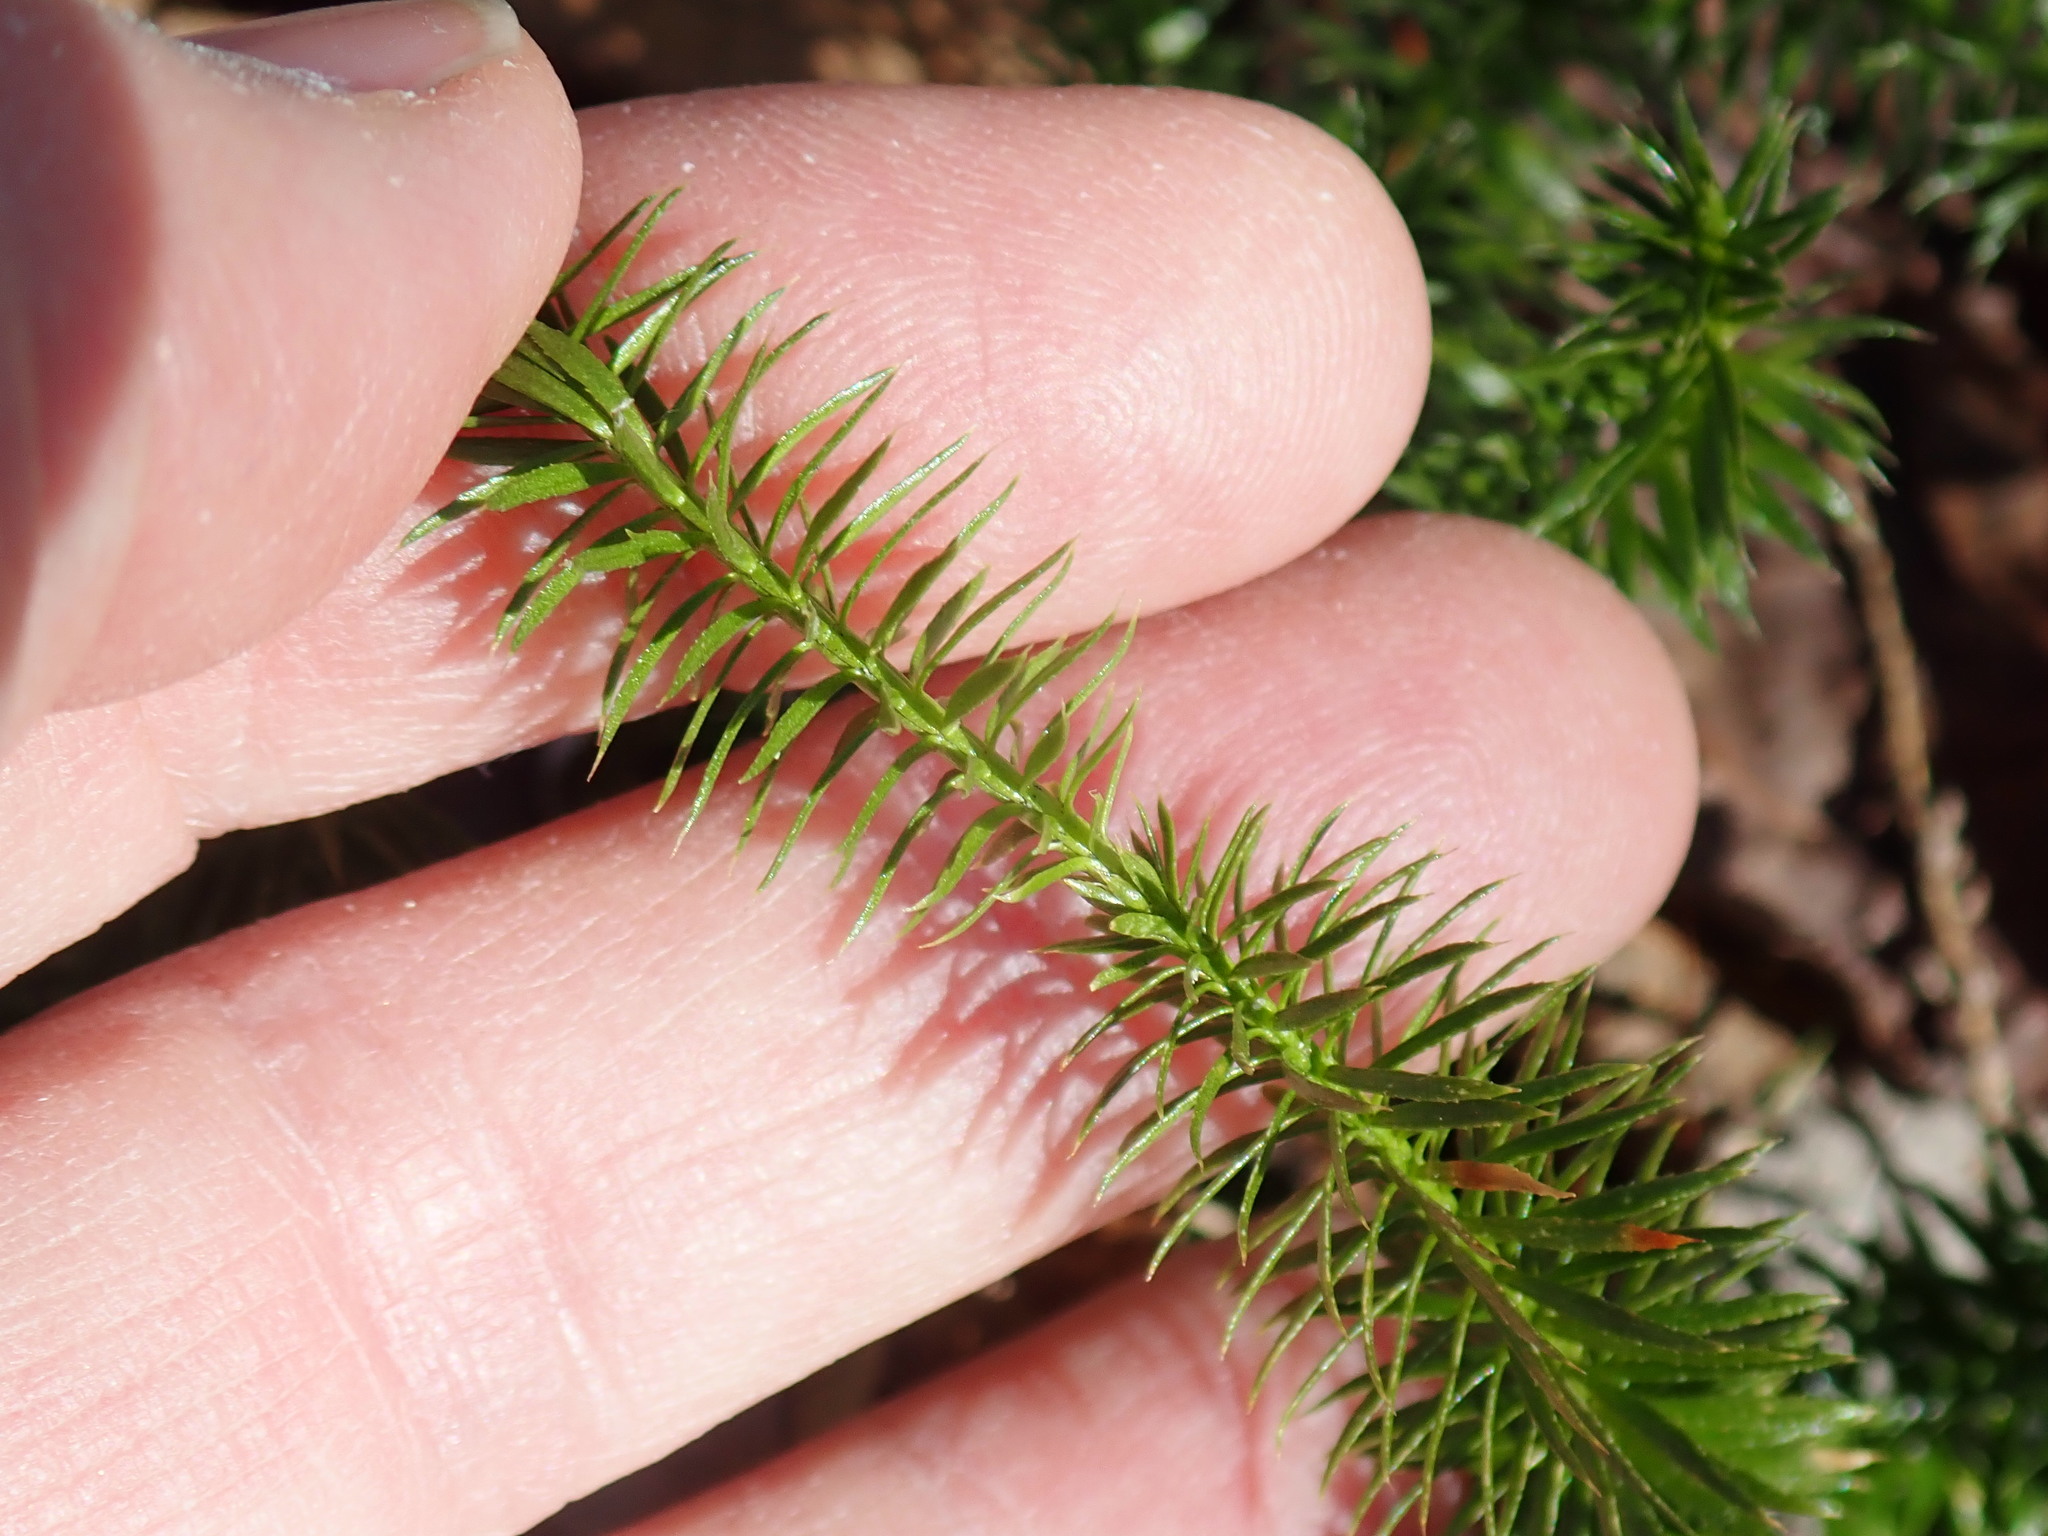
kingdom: Plantae
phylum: Tracheophyta
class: Lycopodiopsida
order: Lycopodiales
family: Lycopodiaceae
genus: Spinulum
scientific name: Spinulum annotinum
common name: Interrupted club-moss
